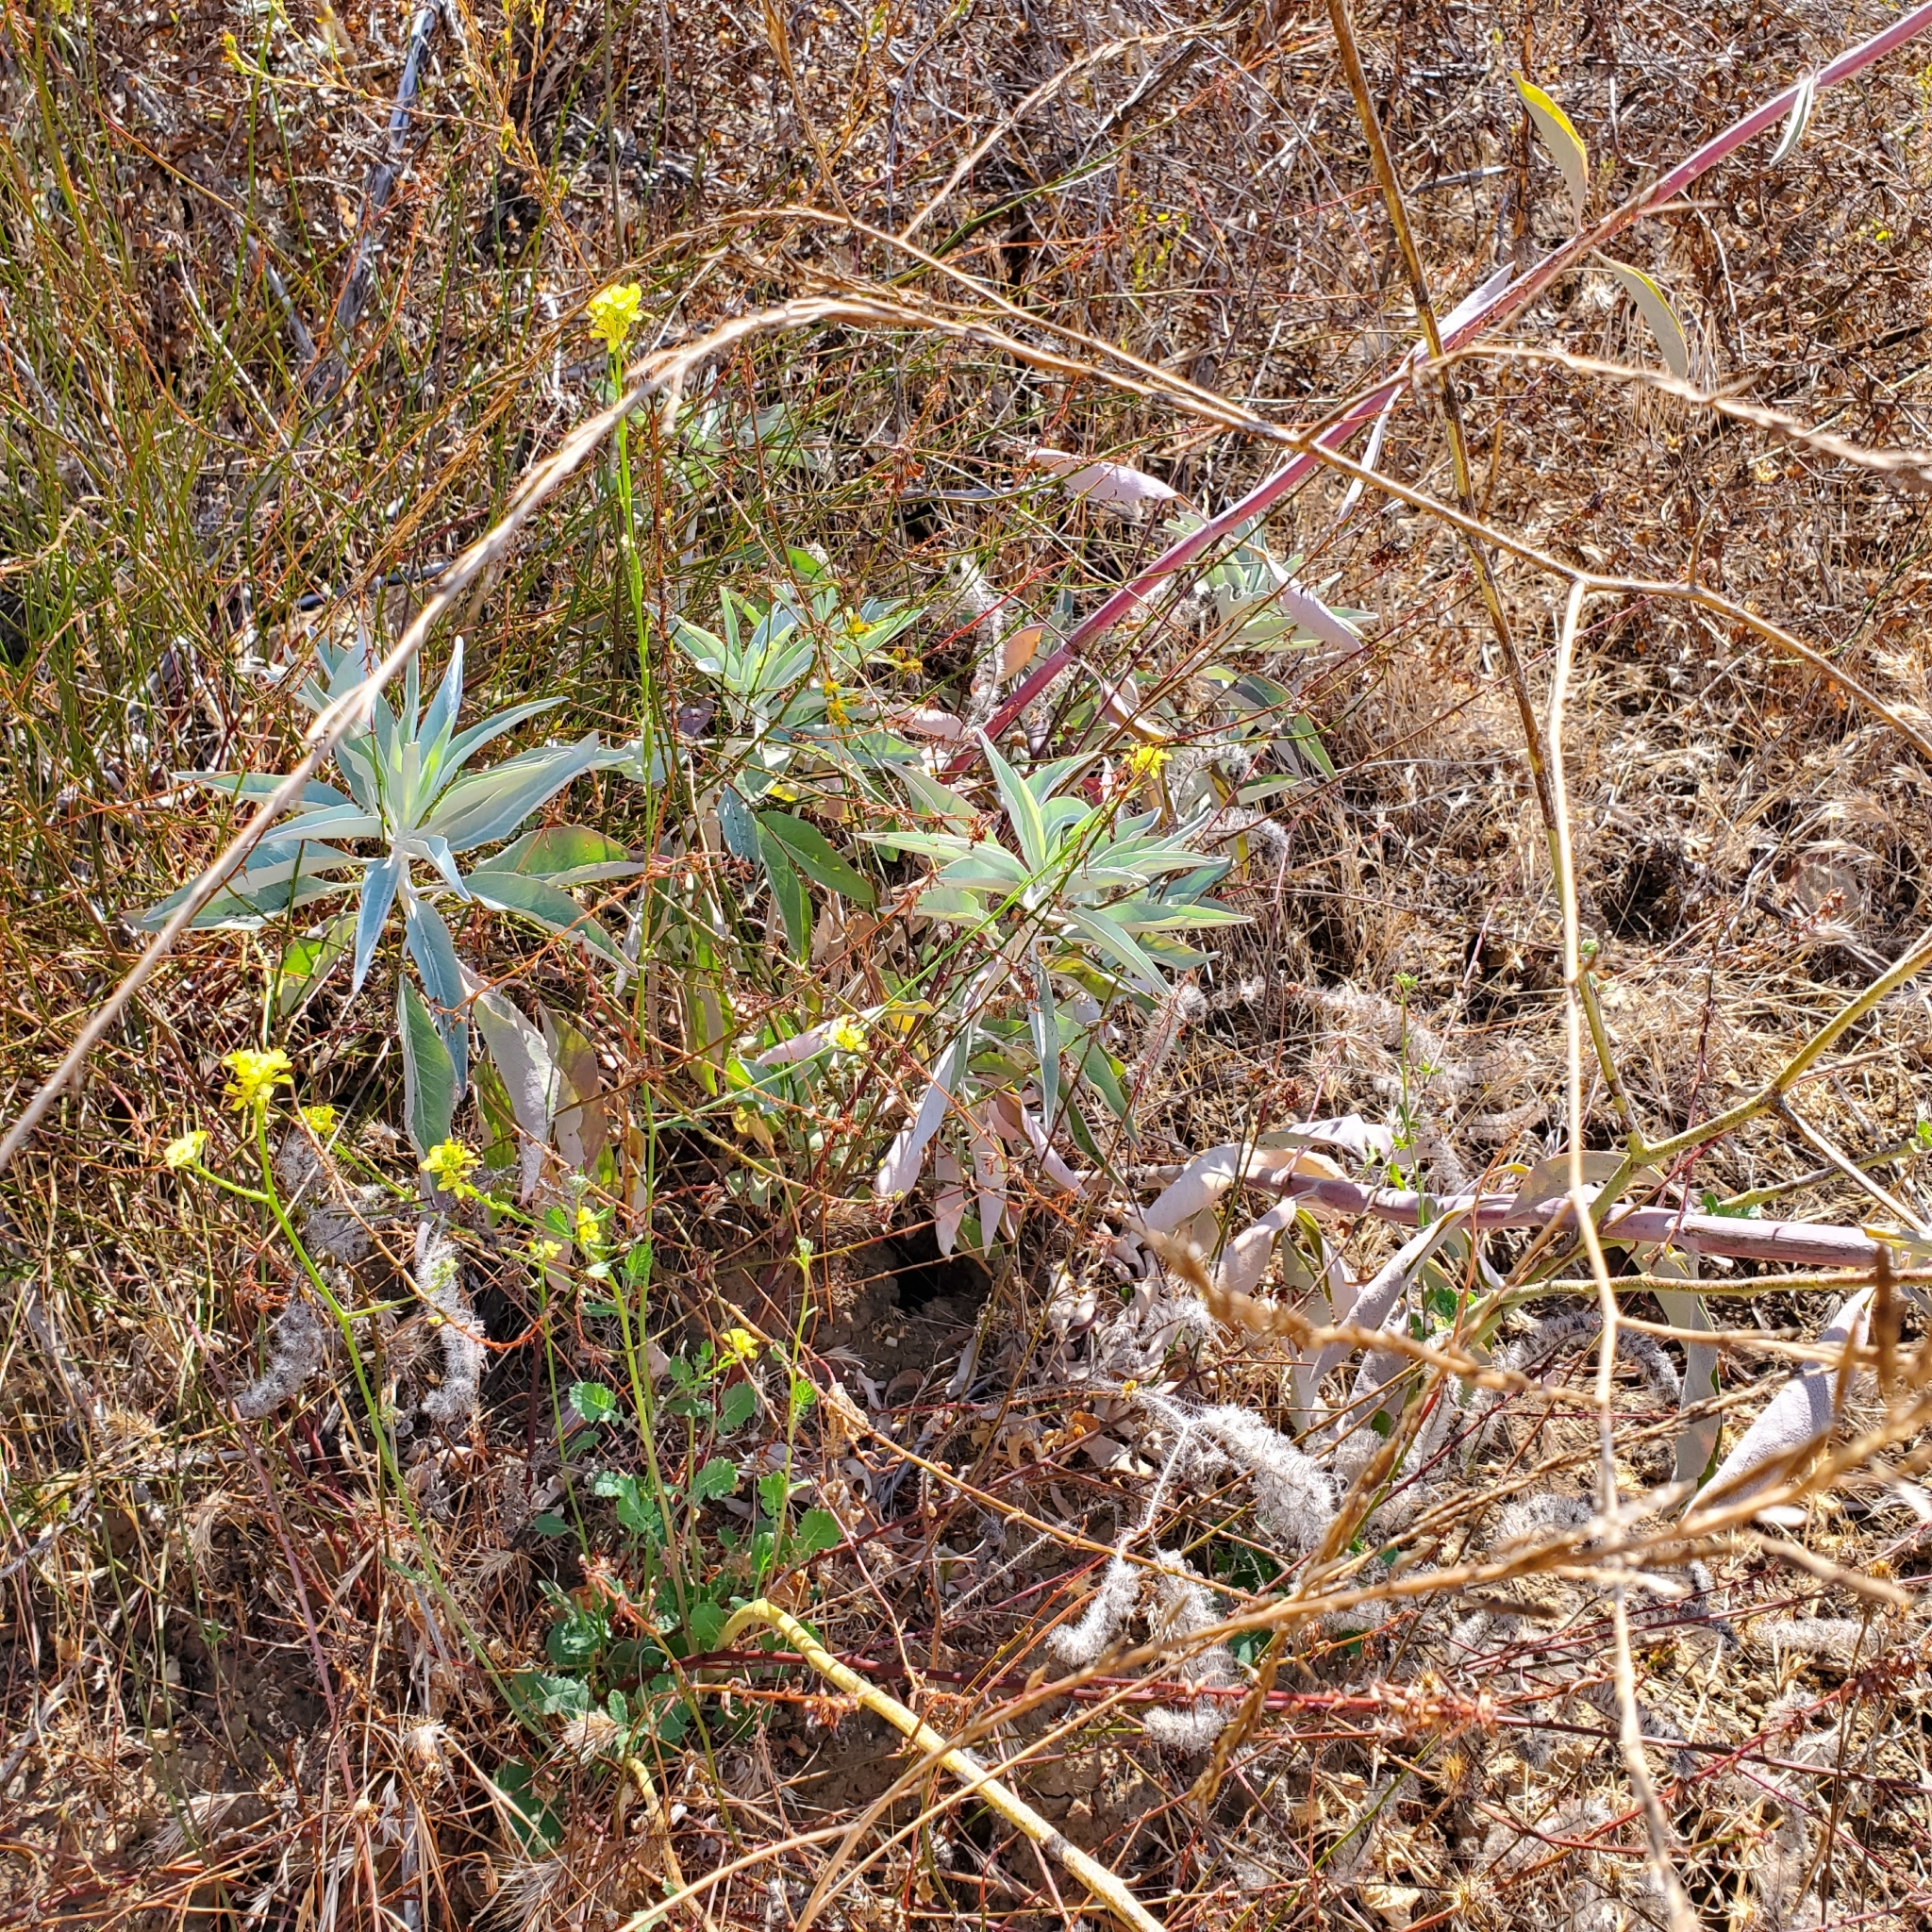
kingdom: Plantae
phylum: Tracheophyta
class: Magnoliopsida
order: Lamiales
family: Lamiaceae
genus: Salvia
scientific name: Salvia apiana
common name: White sage
